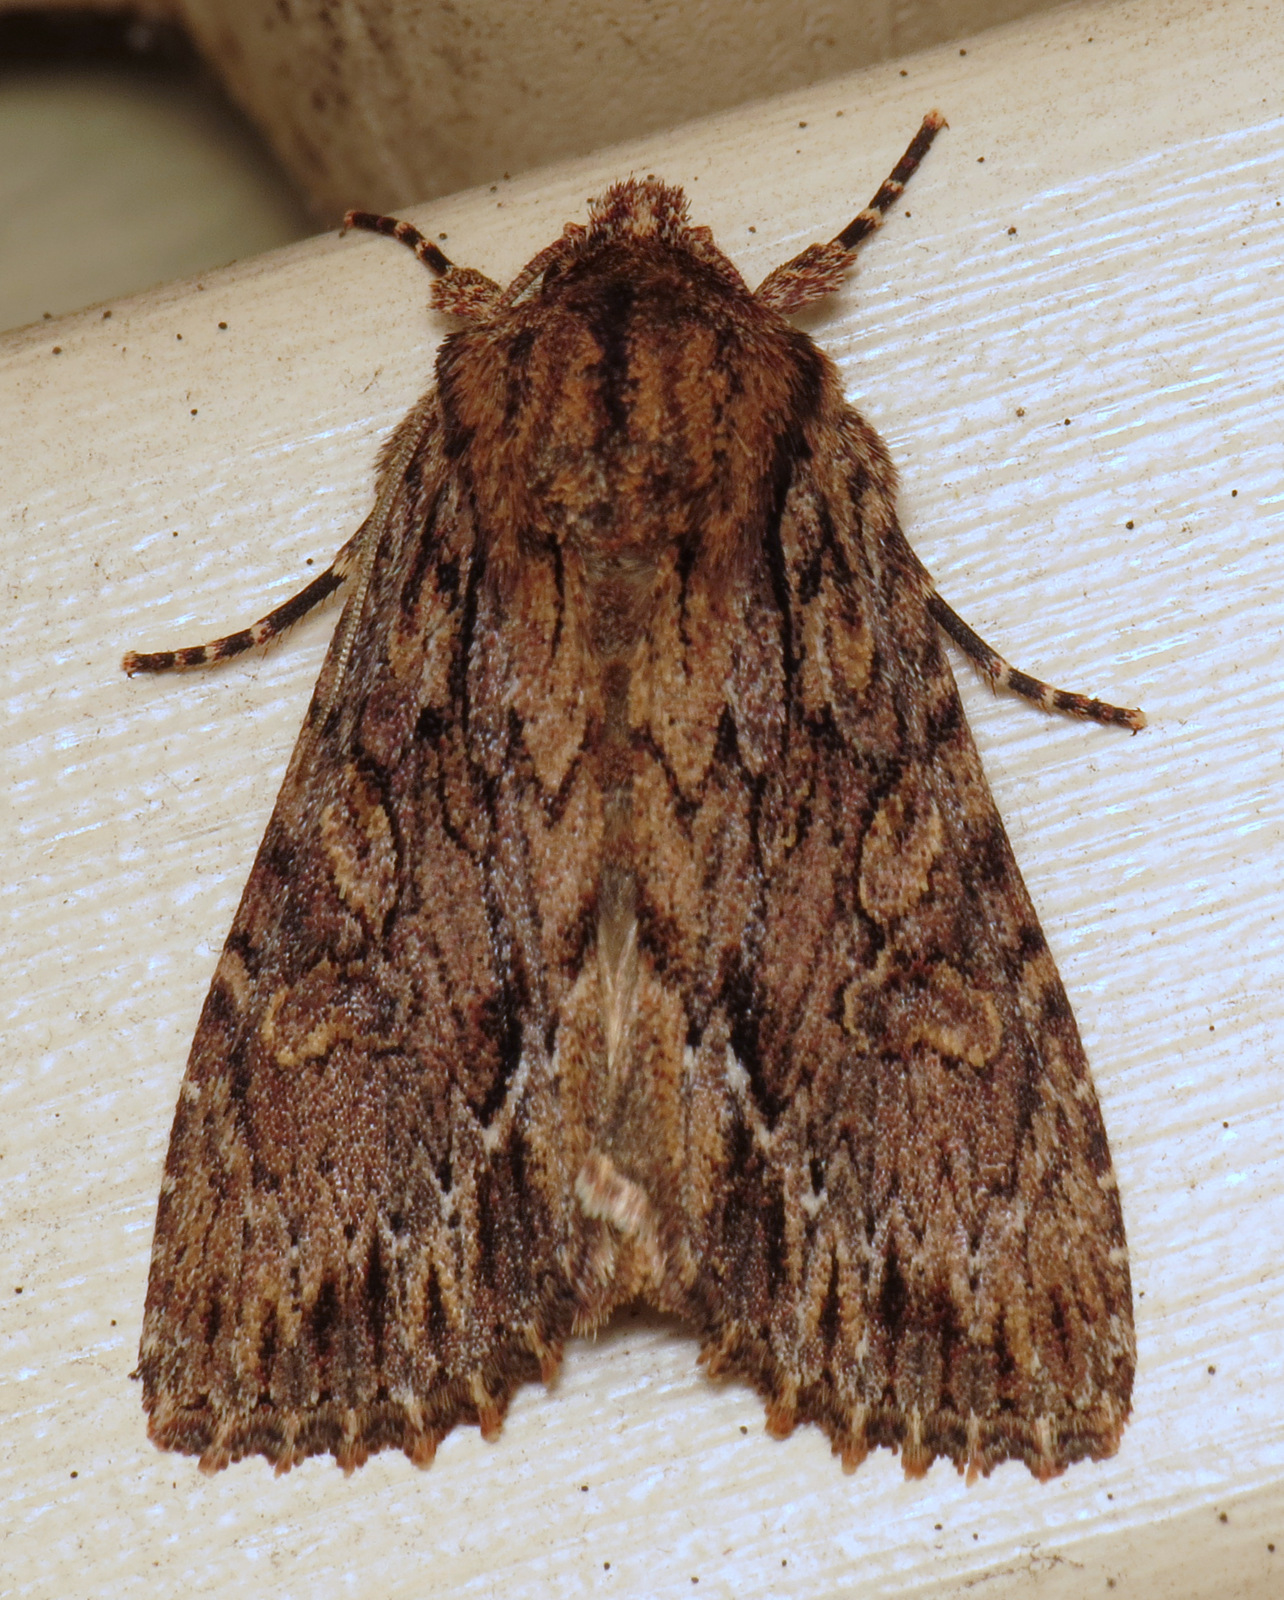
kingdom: Animalia
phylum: Arthropoda
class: Insecta
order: Lepidoptera
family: Noctuidae
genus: Achatia
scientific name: Achatia confusa
